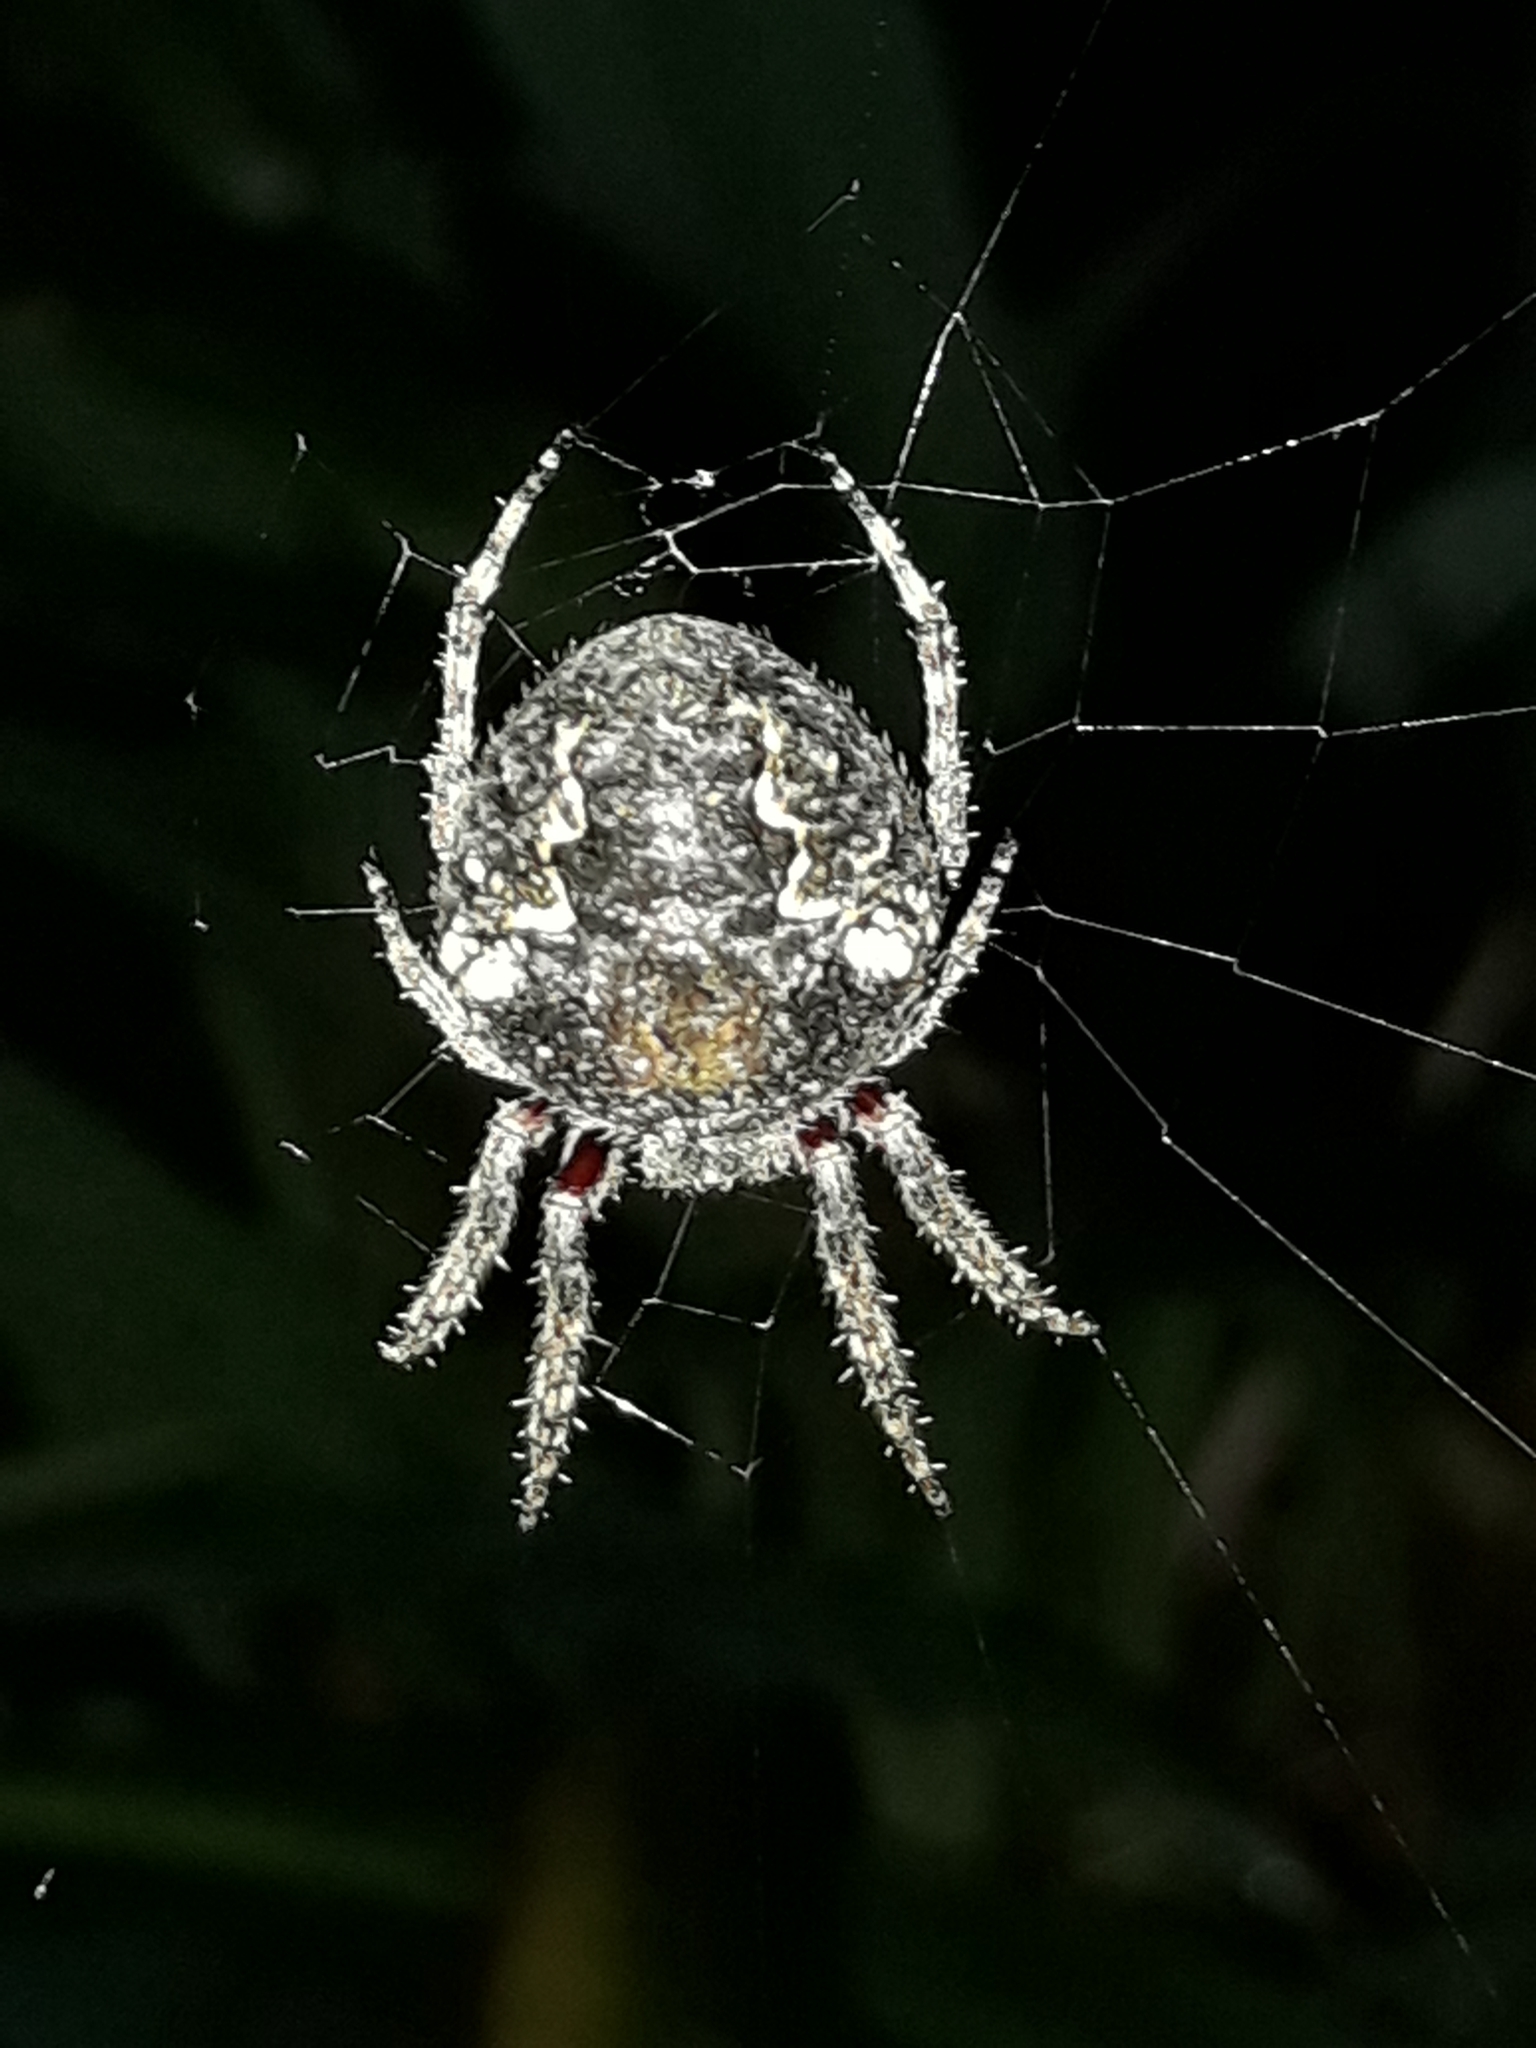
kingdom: Animalia
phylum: Arthropoda
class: Arachnida
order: Araneae
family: Araneidae
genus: Eriophora
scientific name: Eriophora pustulosa
